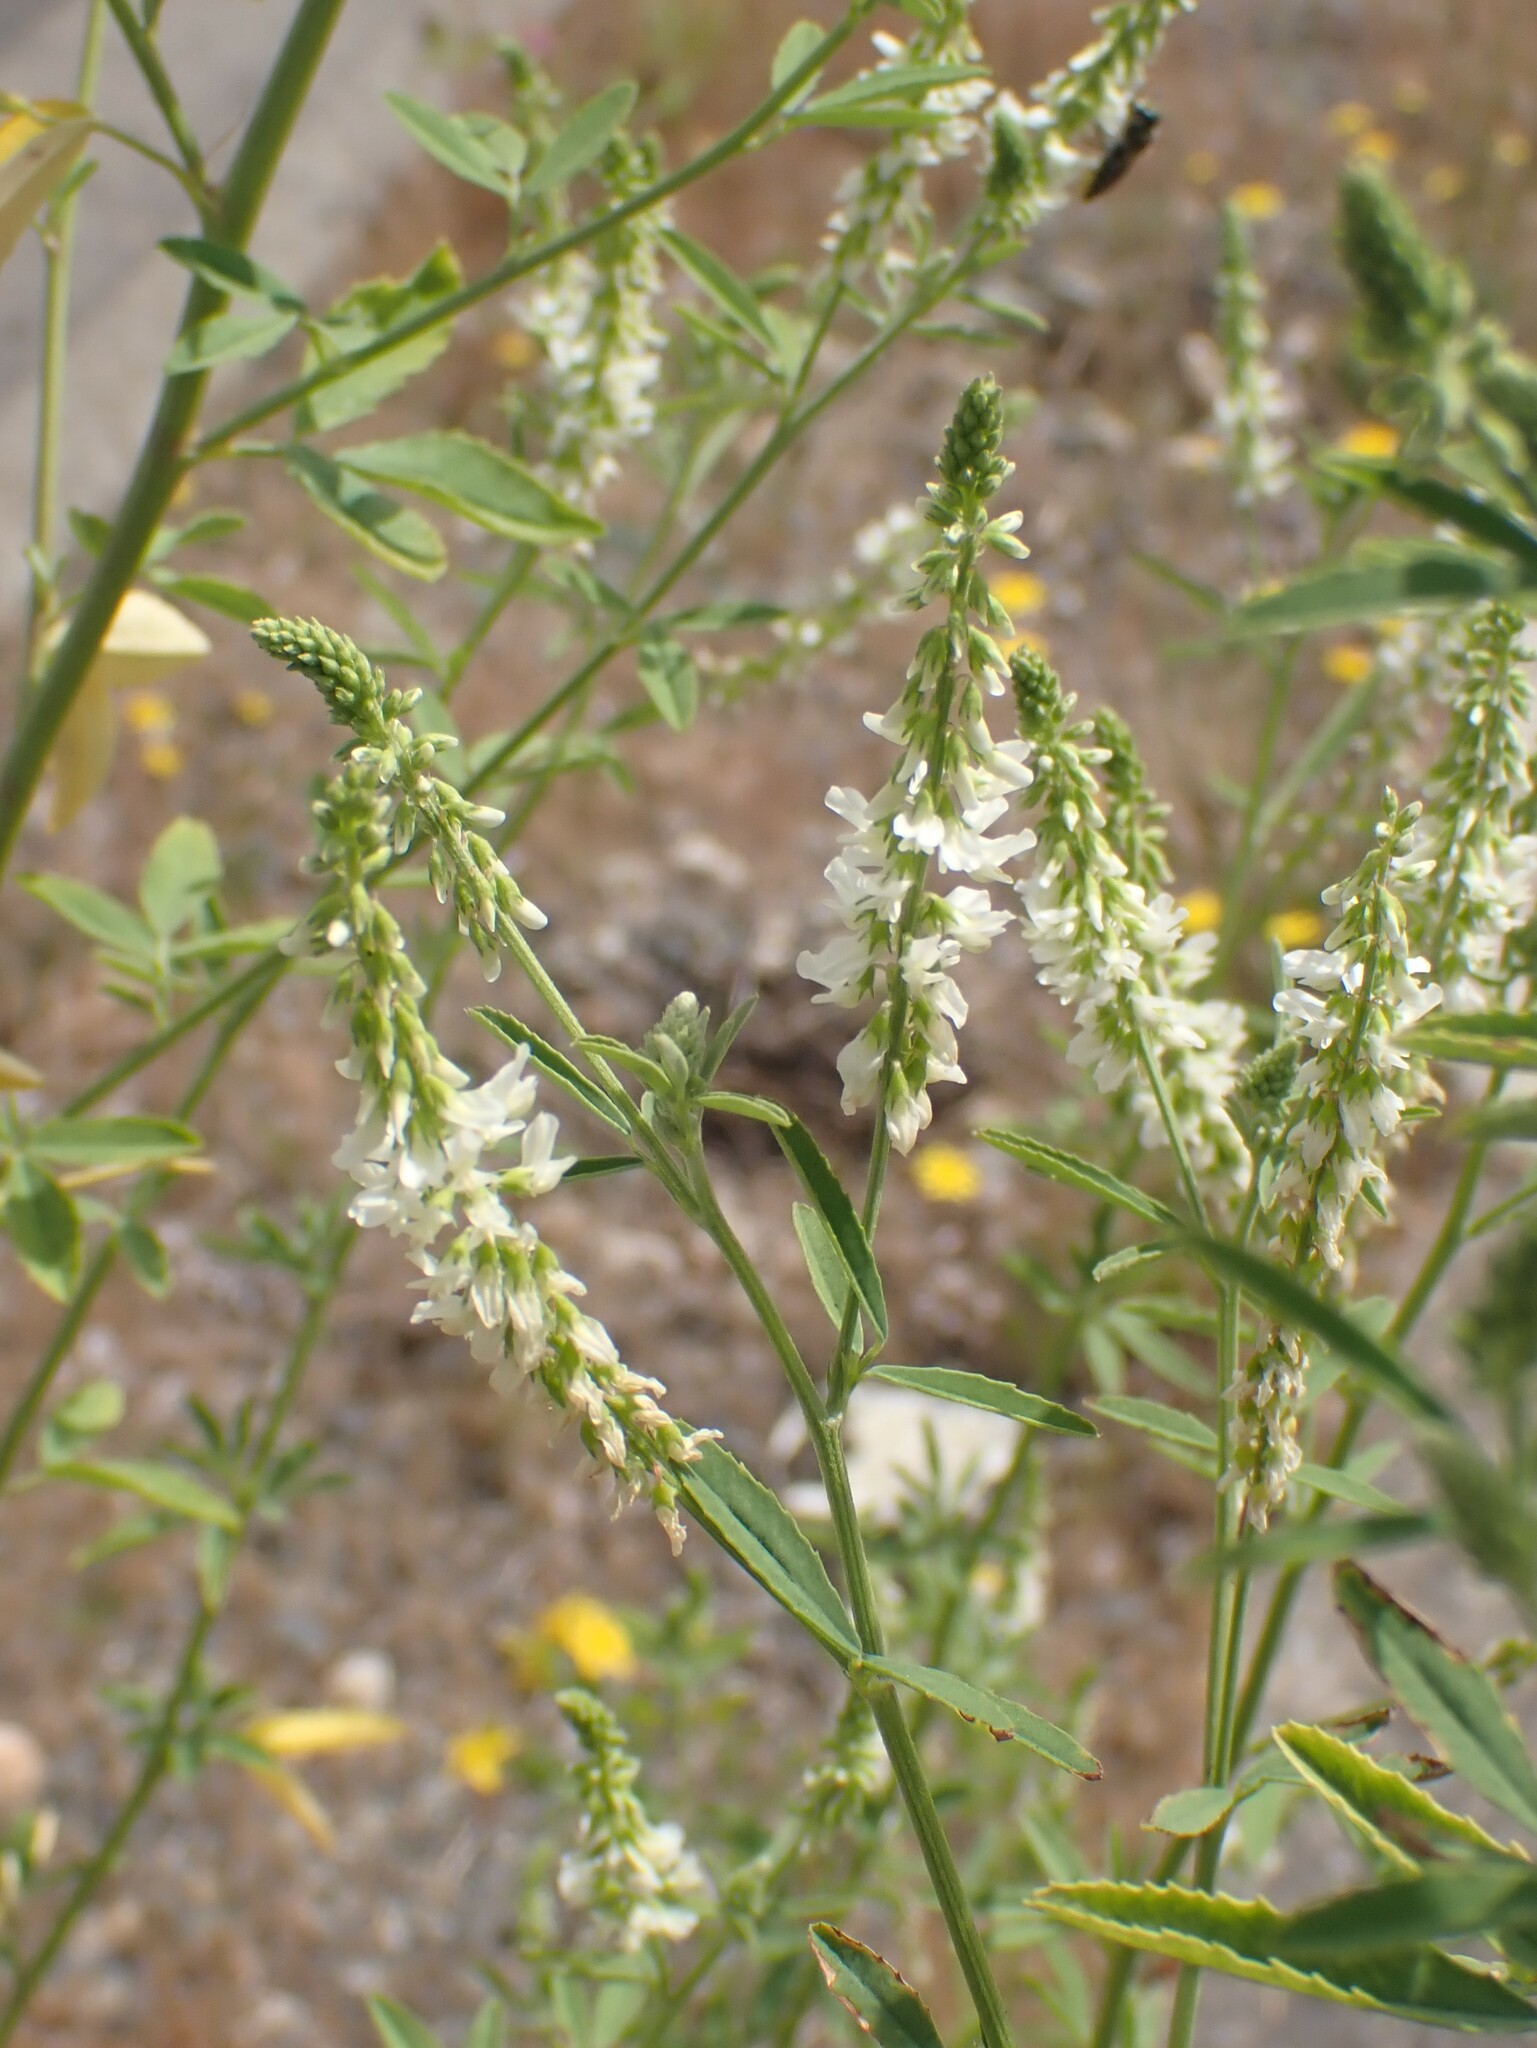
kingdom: Plantae
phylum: Tracheophyta
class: Magnoliopsida
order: Fabales
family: Fabaceae
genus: Melilotus
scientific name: Melilotus albus
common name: White melilot
